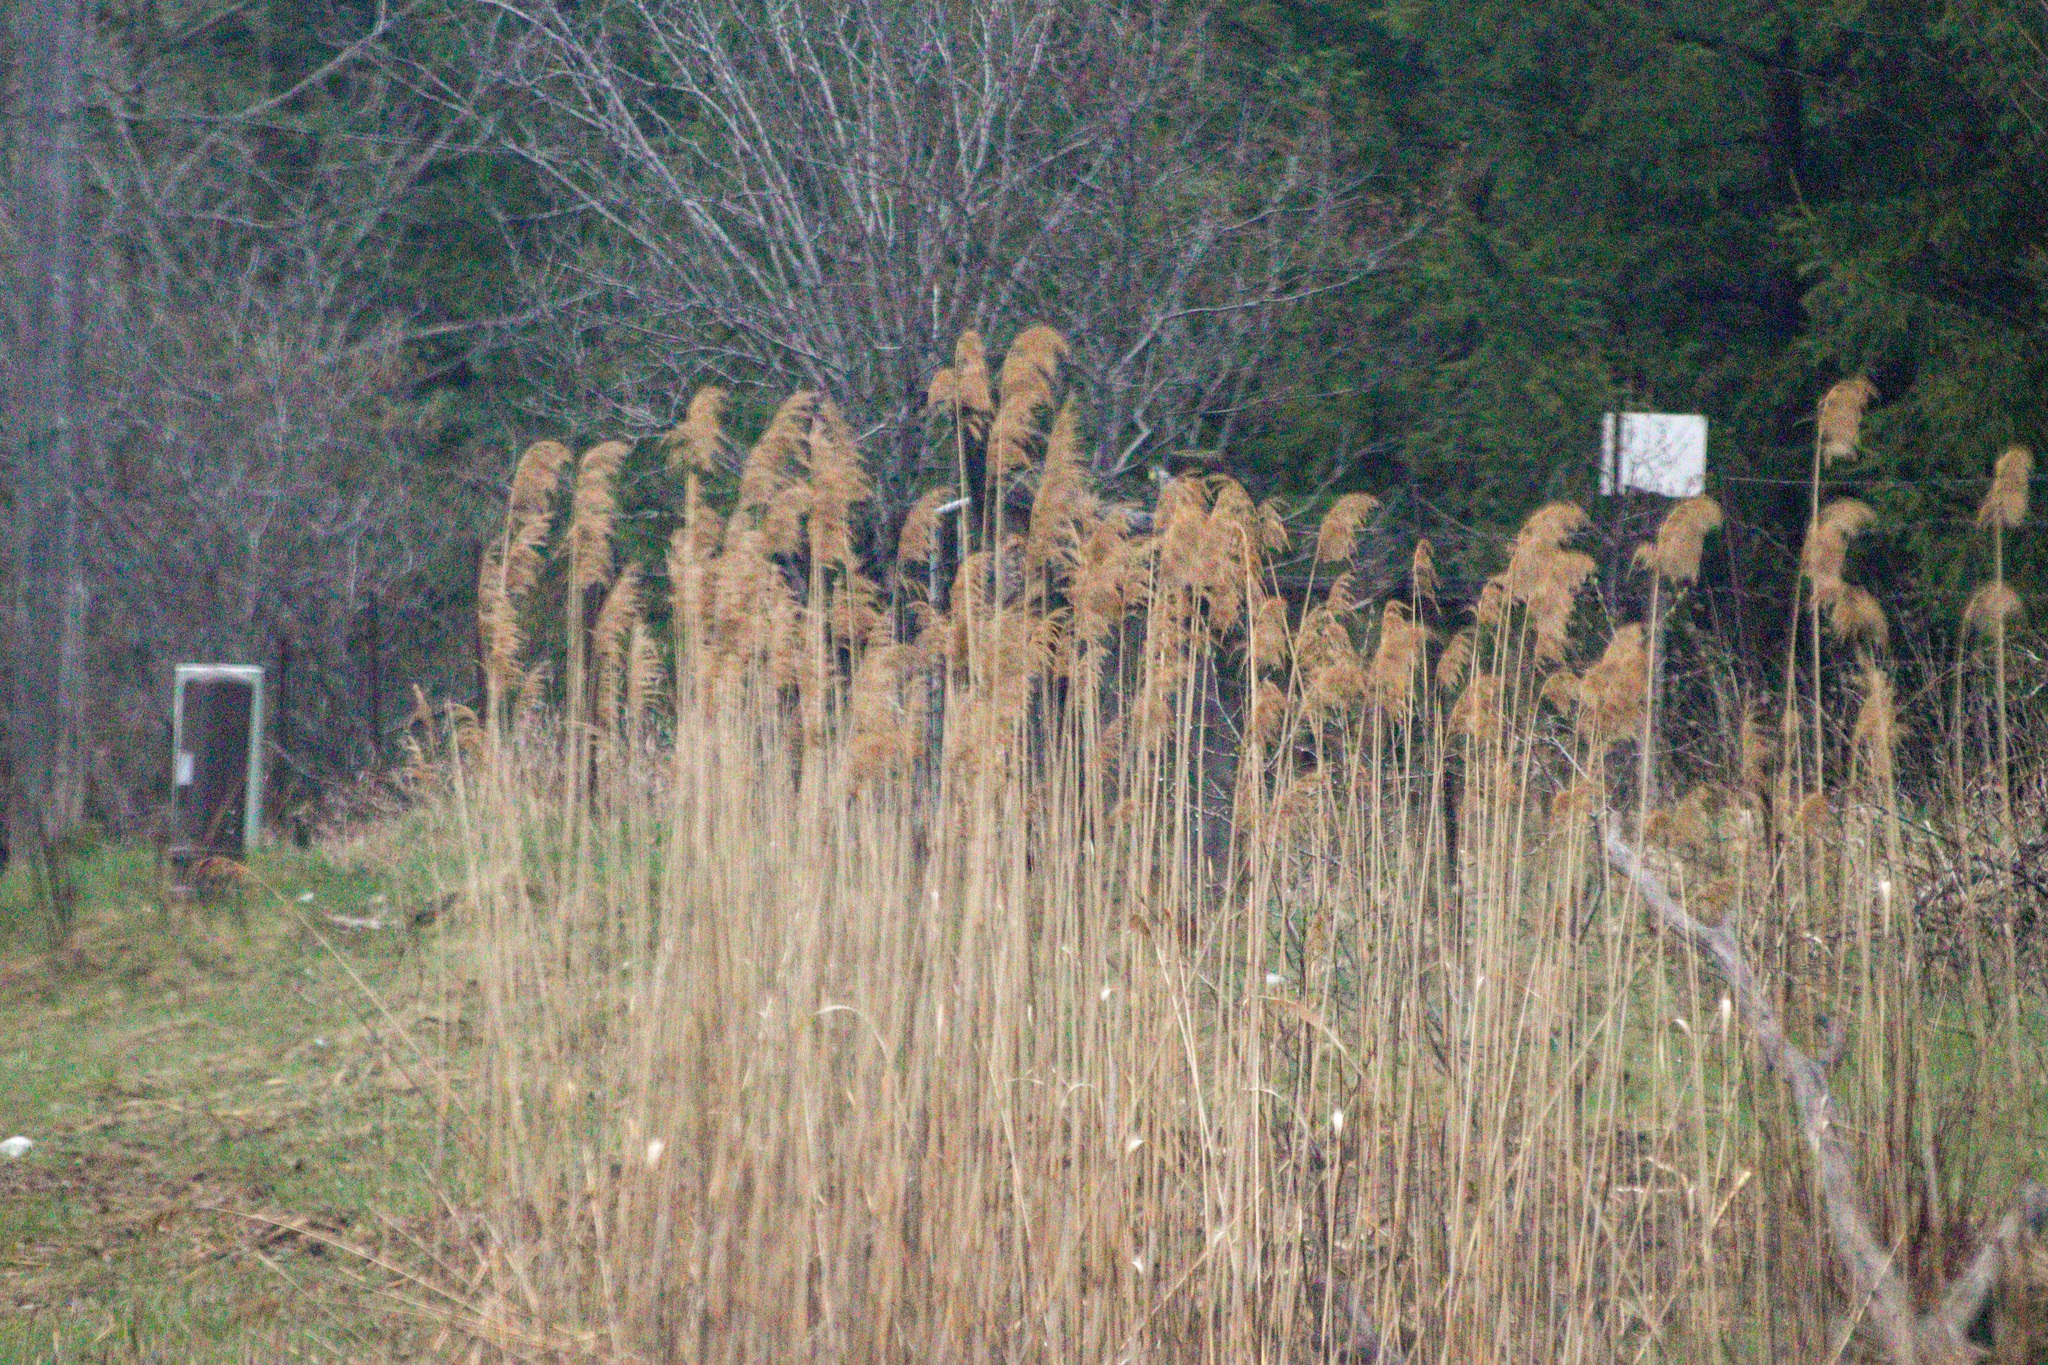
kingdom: Plantae
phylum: Tracheophyta
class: Liliopsida
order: Poales
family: Poaceae
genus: Phragmites
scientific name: Phragmites australis
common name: Common reed
